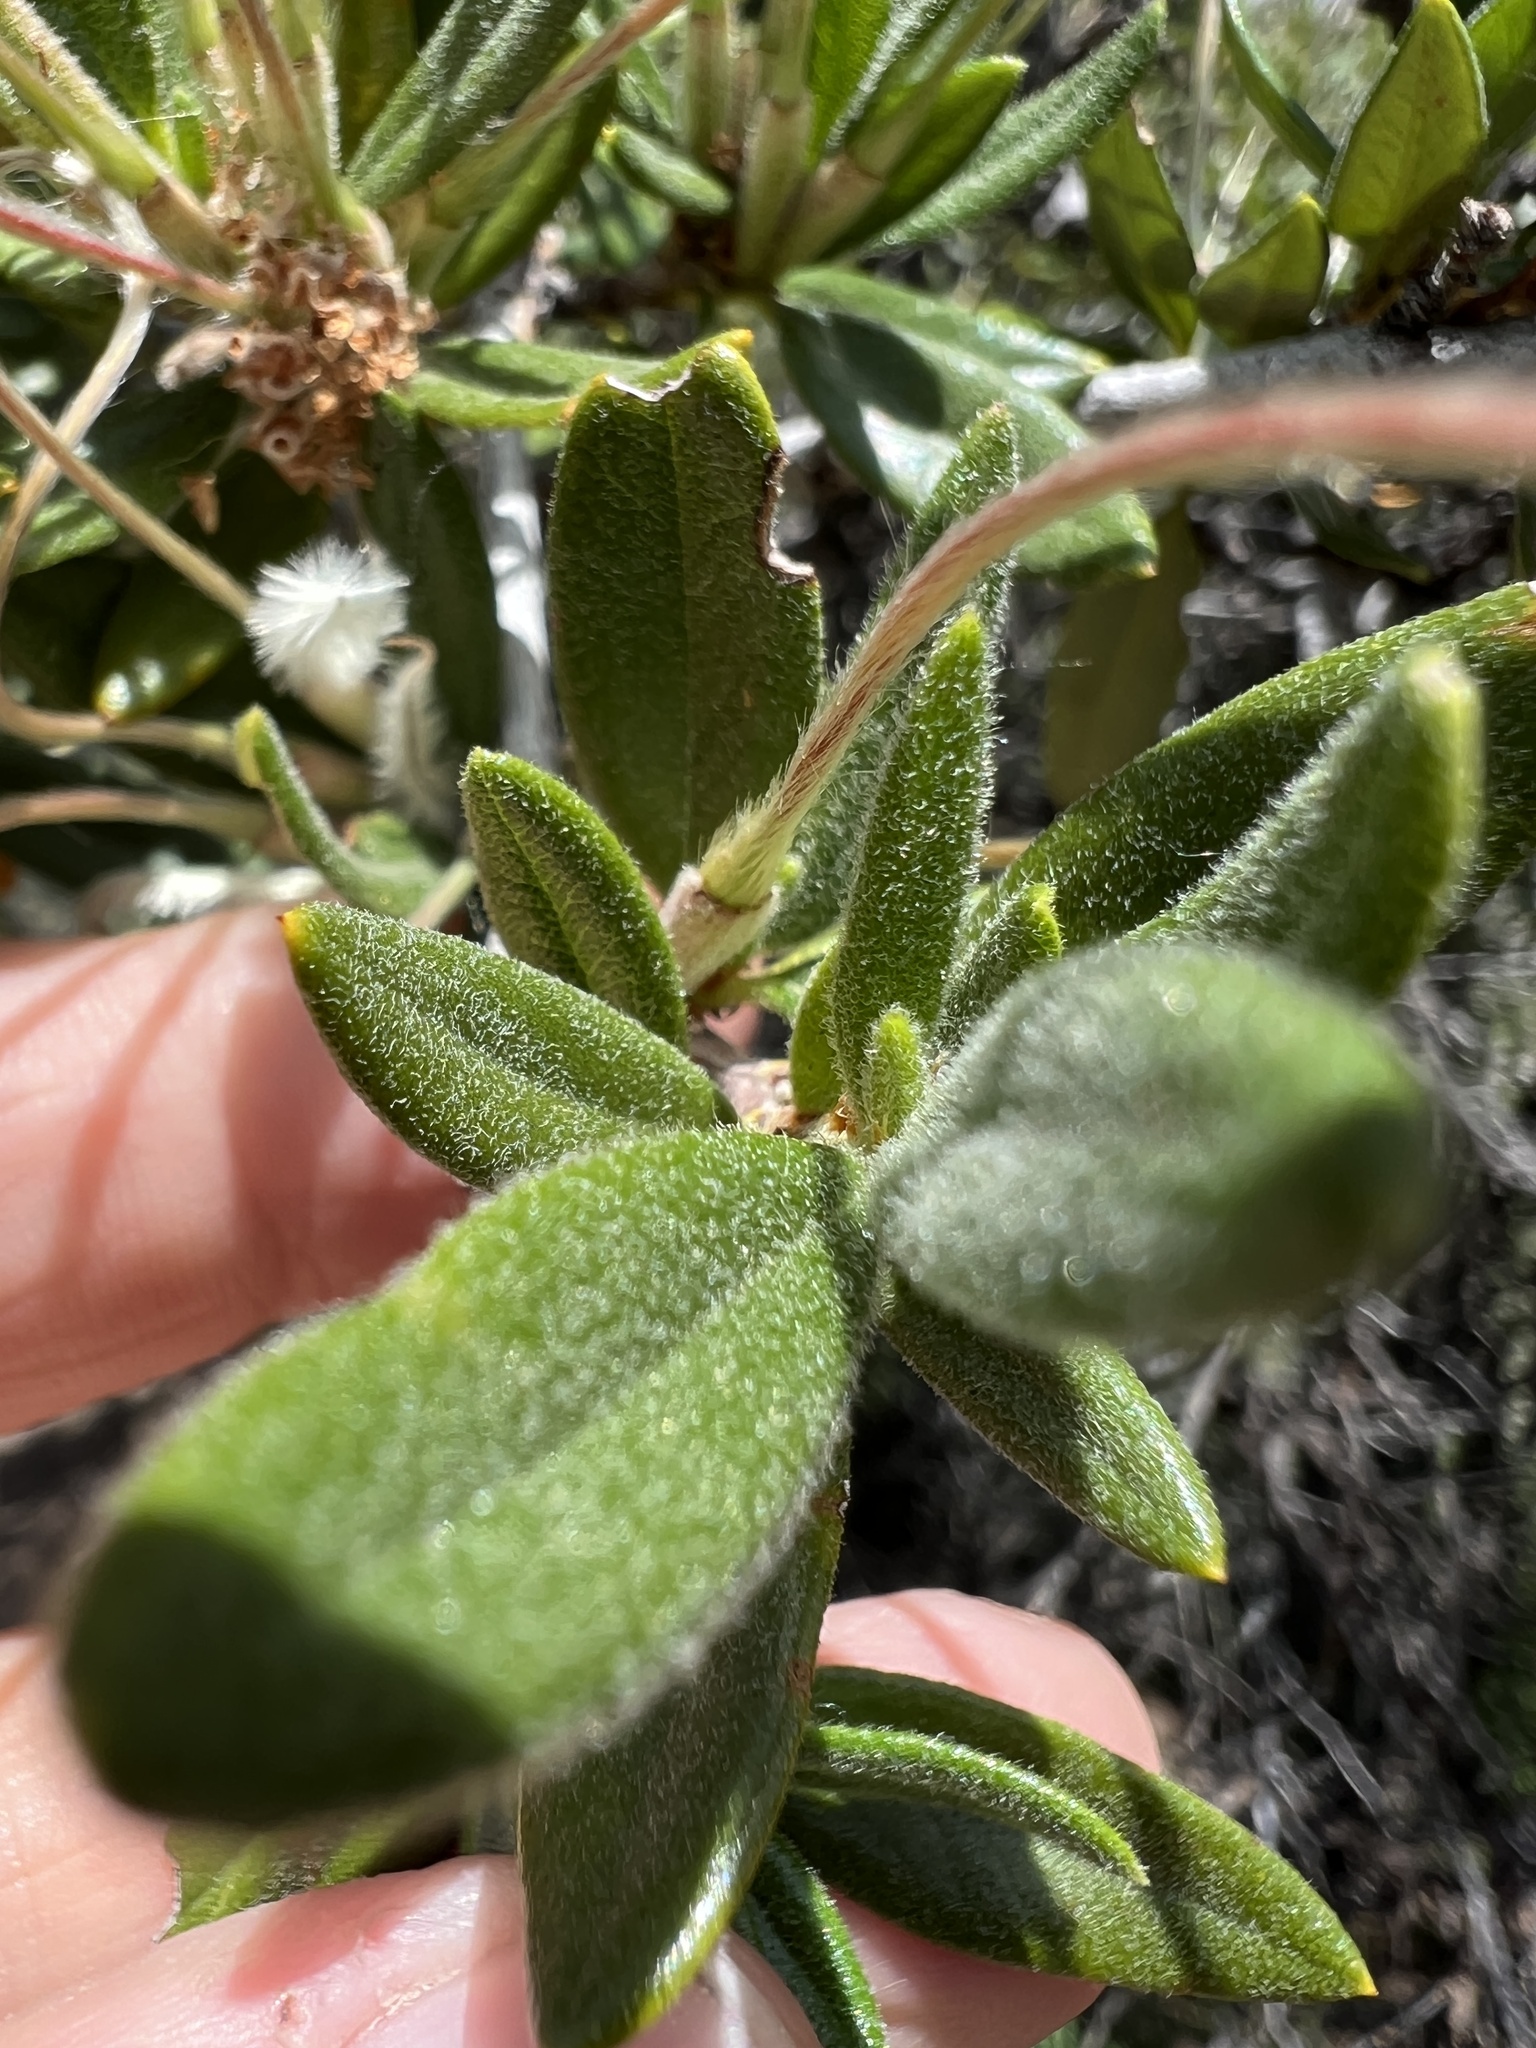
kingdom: Plantae
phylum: Tracheophyta
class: Magnoliopsida
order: Rosales
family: Rosaceae
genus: Cercocarpus
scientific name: Cercocarpus ledifolius
